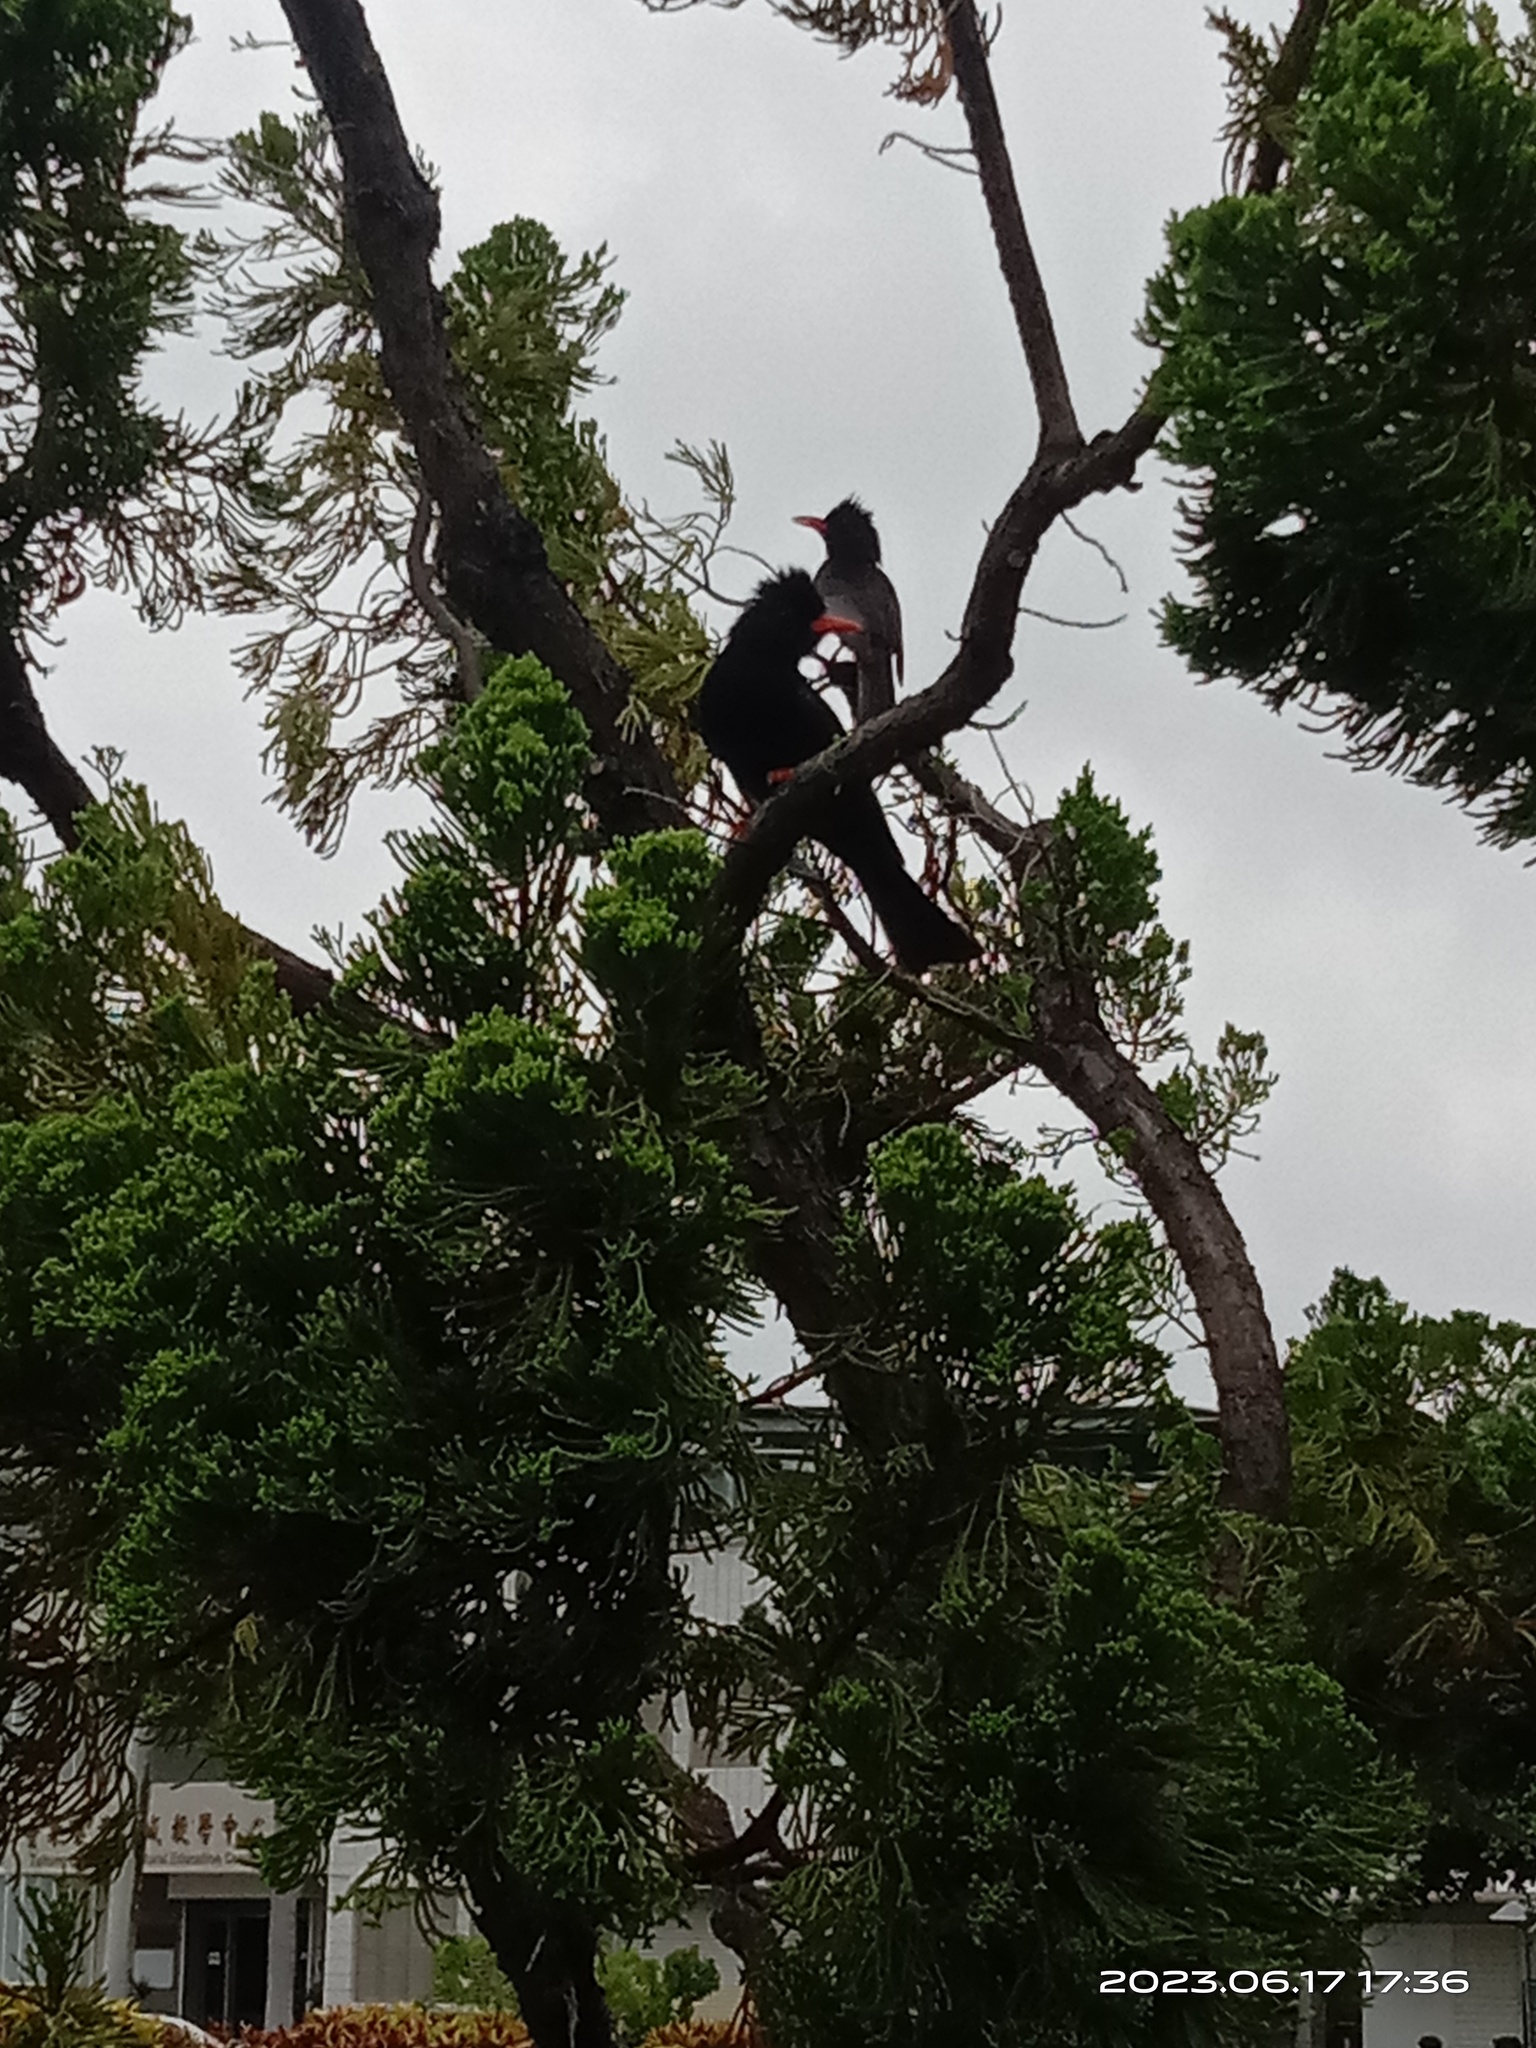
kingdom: Animalia
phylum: Chordata
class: Aves
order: Passeriformes
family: Pycnonotidae
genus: Hypsipetes
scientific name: Hypsipetes leucocephalus
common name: Black bulbul
